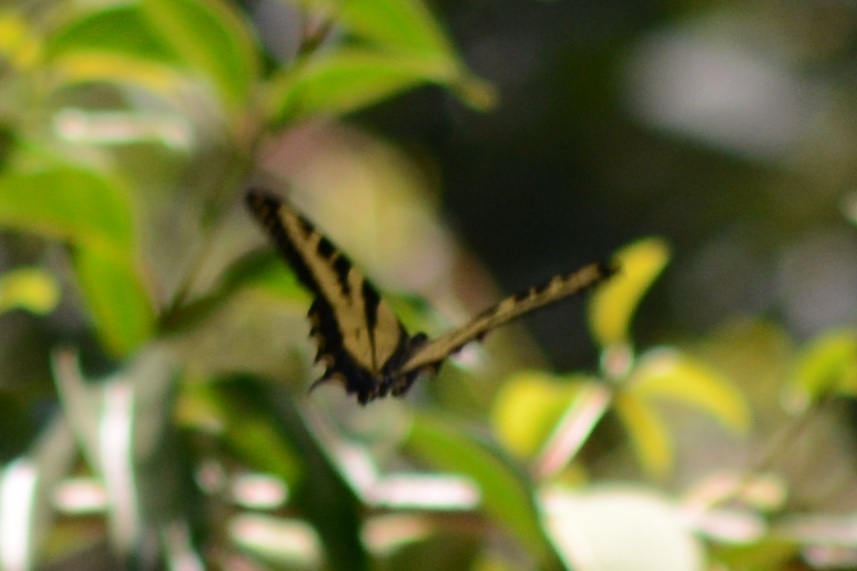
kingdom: Animalia
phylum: Arthropoda
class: Insecta
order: Lepidoptera
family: Papilionidae
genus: Papilio
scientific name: Papilio rutulus
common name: Western tiger swallowtail
